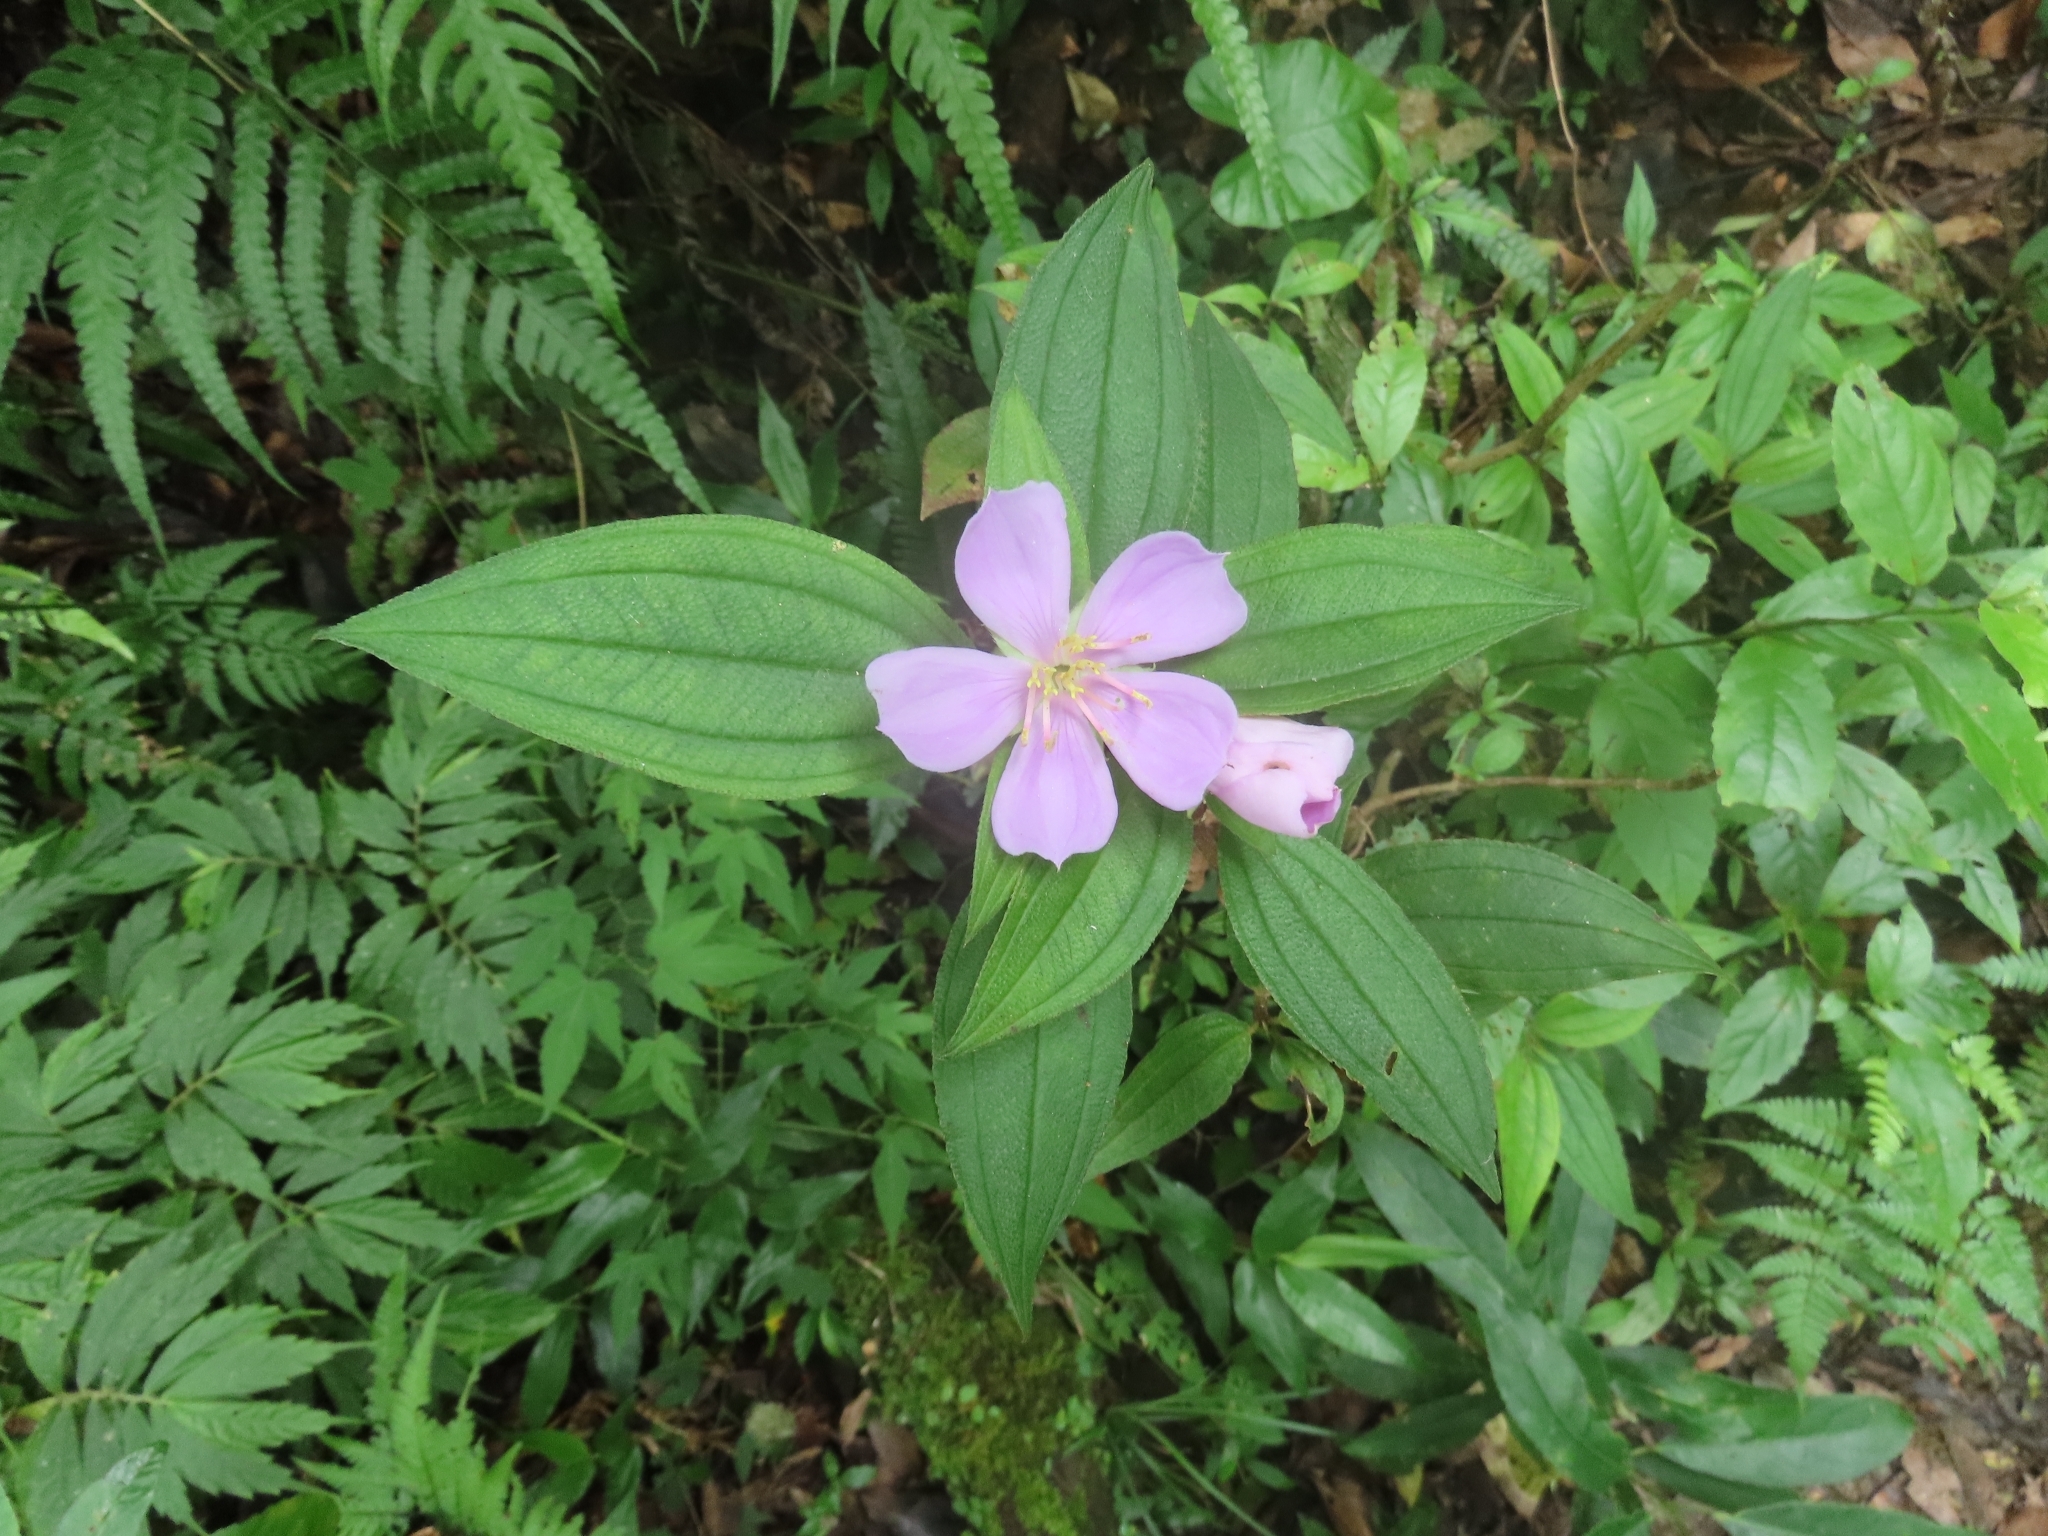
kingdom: Plantae
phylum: Tracheophyta
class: Magnoliopsida
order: Myrtales
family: Melastomataceae
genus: Melastoma
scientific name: Melastoma malabathricum
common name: Indian-rhododendron
